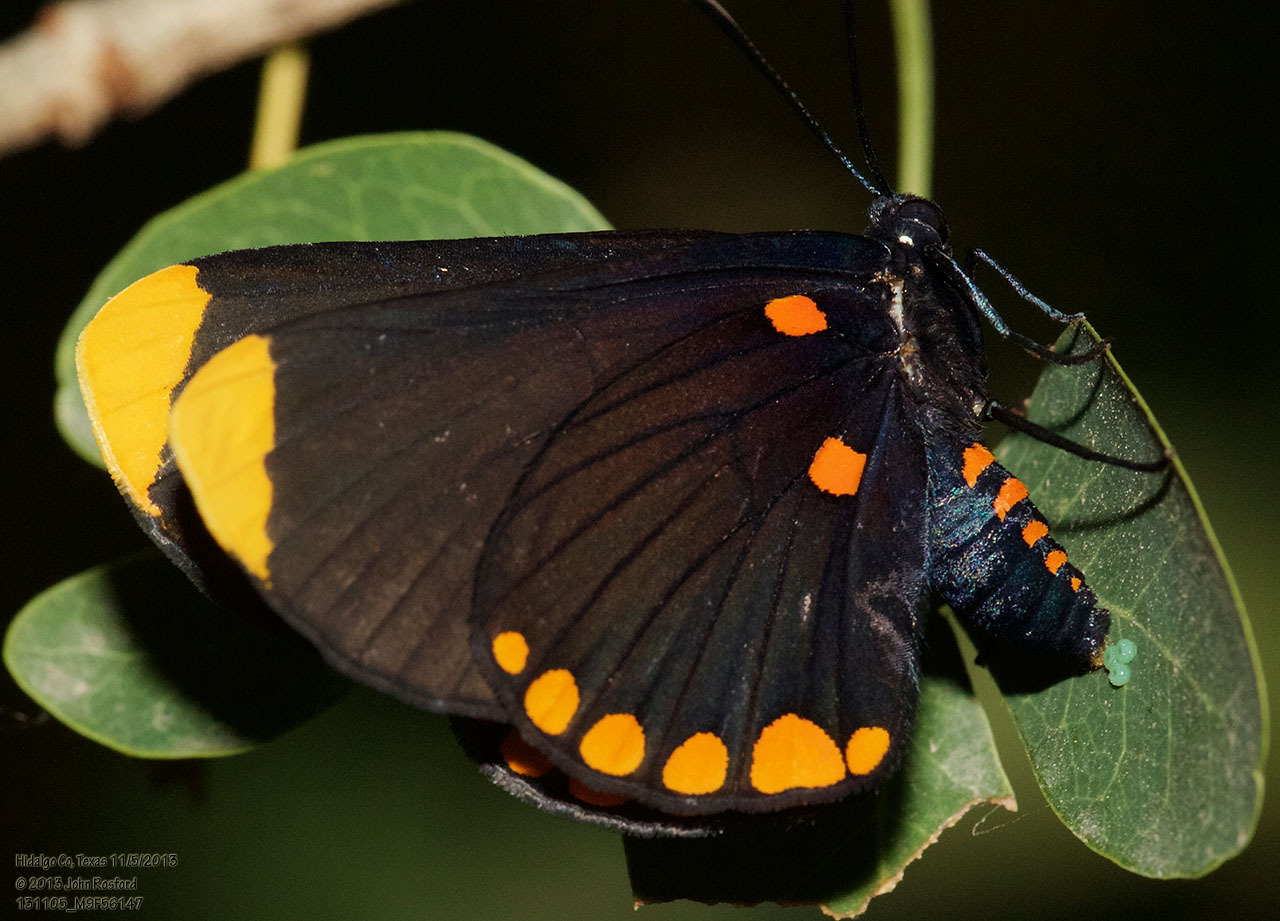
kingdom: Animalia
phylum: Arthropoda
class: Insecta
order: Lepidoptera
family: Lycaenidae
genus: Melanis
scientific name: Melanis pixe
